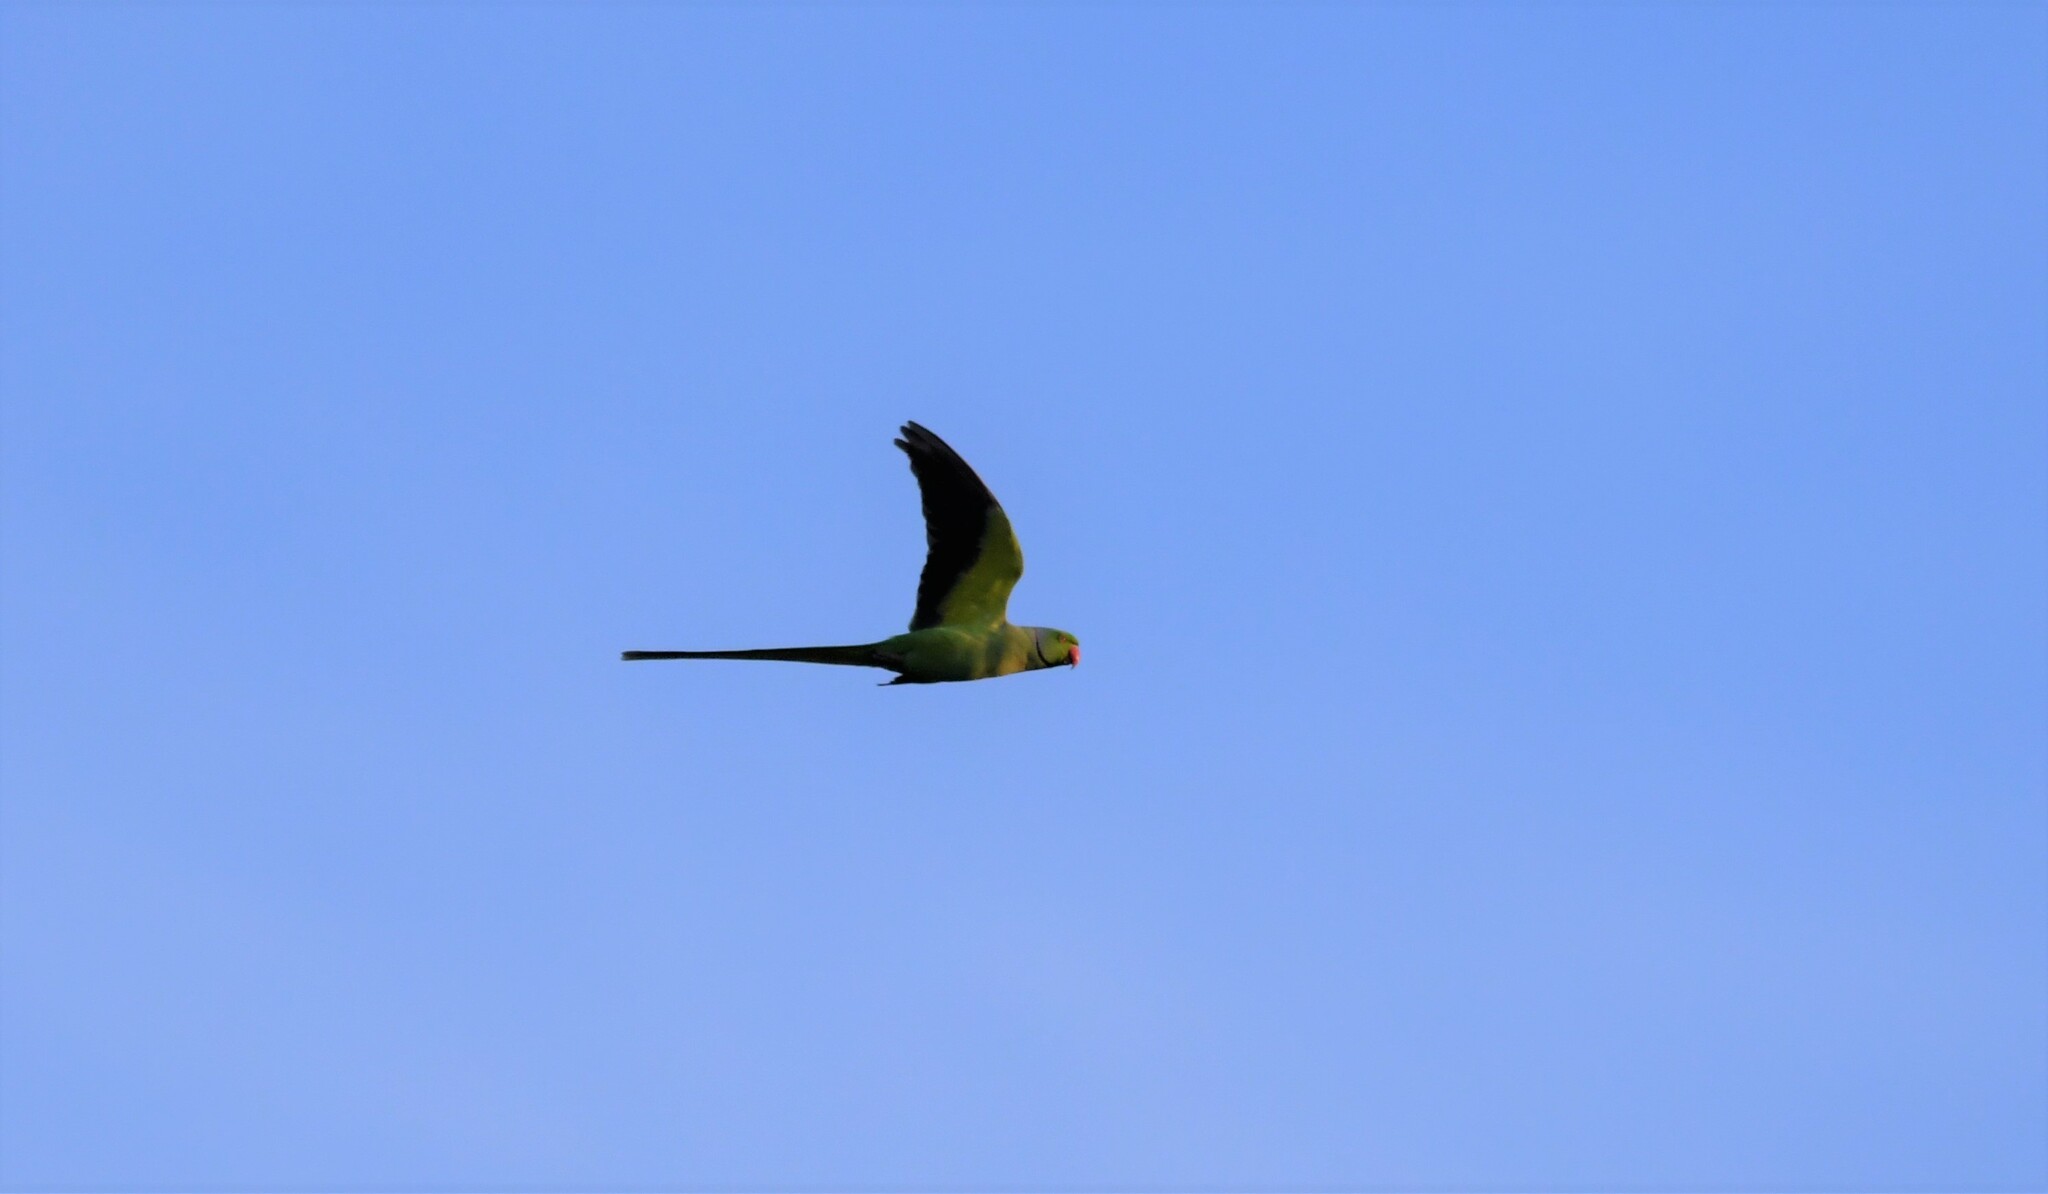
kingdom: Animalia
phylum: Chordata
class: Aves
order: Psittaciformes
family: Psittacidae
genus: Psittacula
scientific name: Psittacula krameri
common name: Rose-ringed parakeet
